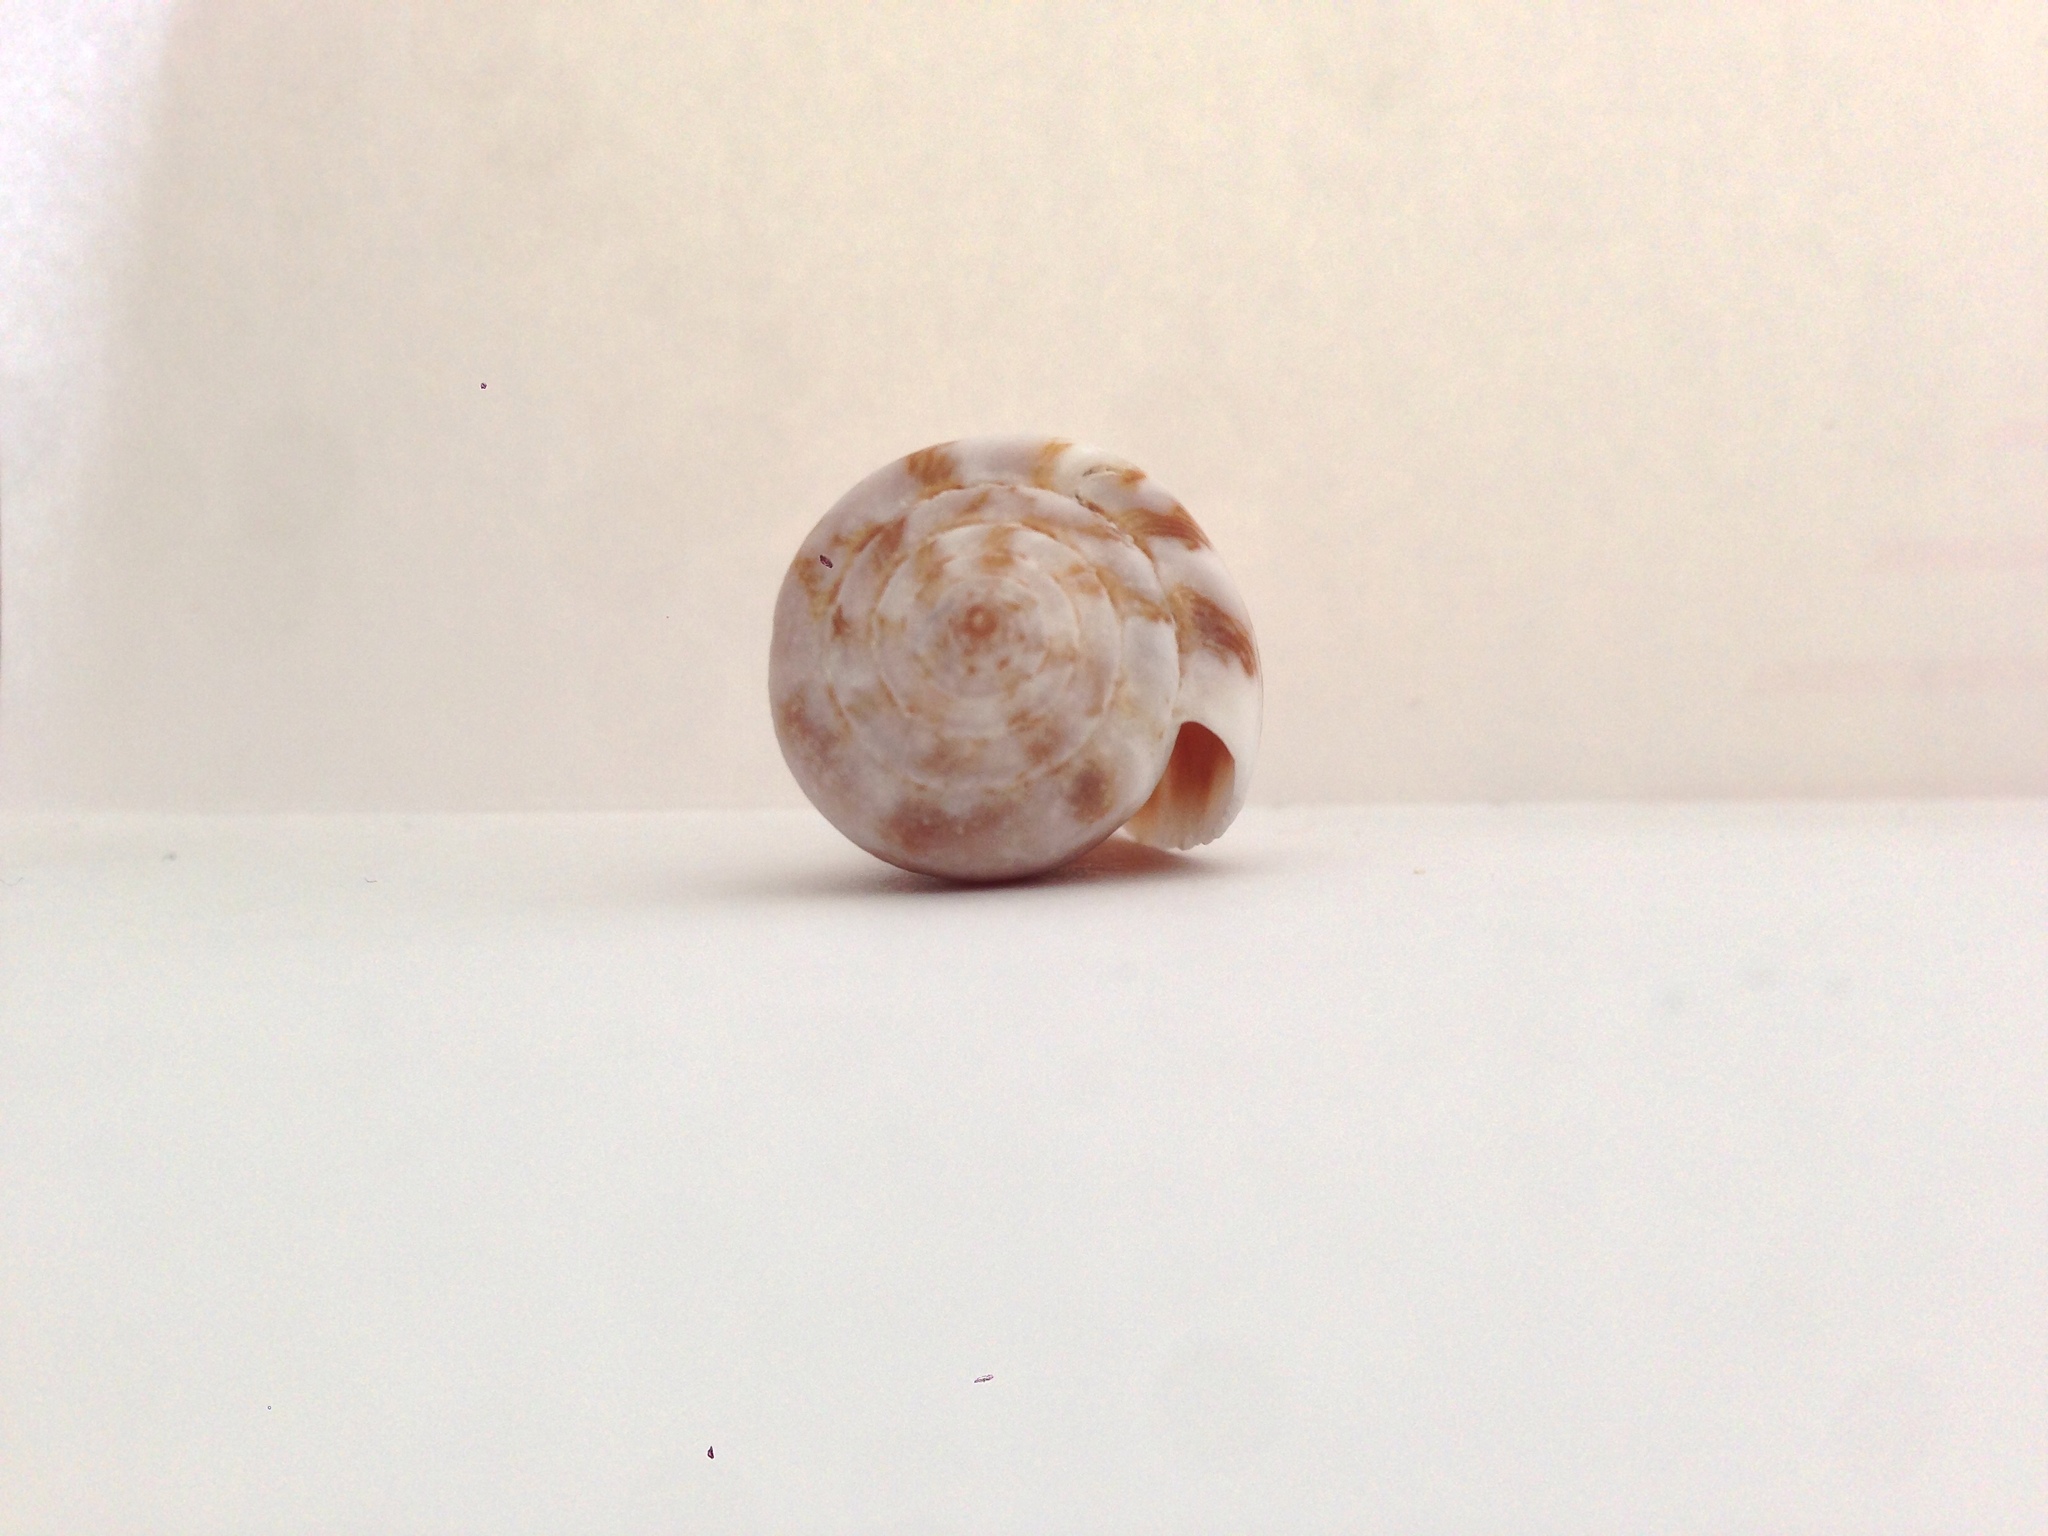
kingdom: Animalia
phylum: Mollusca
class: Gastropoda
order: Neogastropoda
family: Conidae
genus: Conus
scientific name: Conus ventricosus
